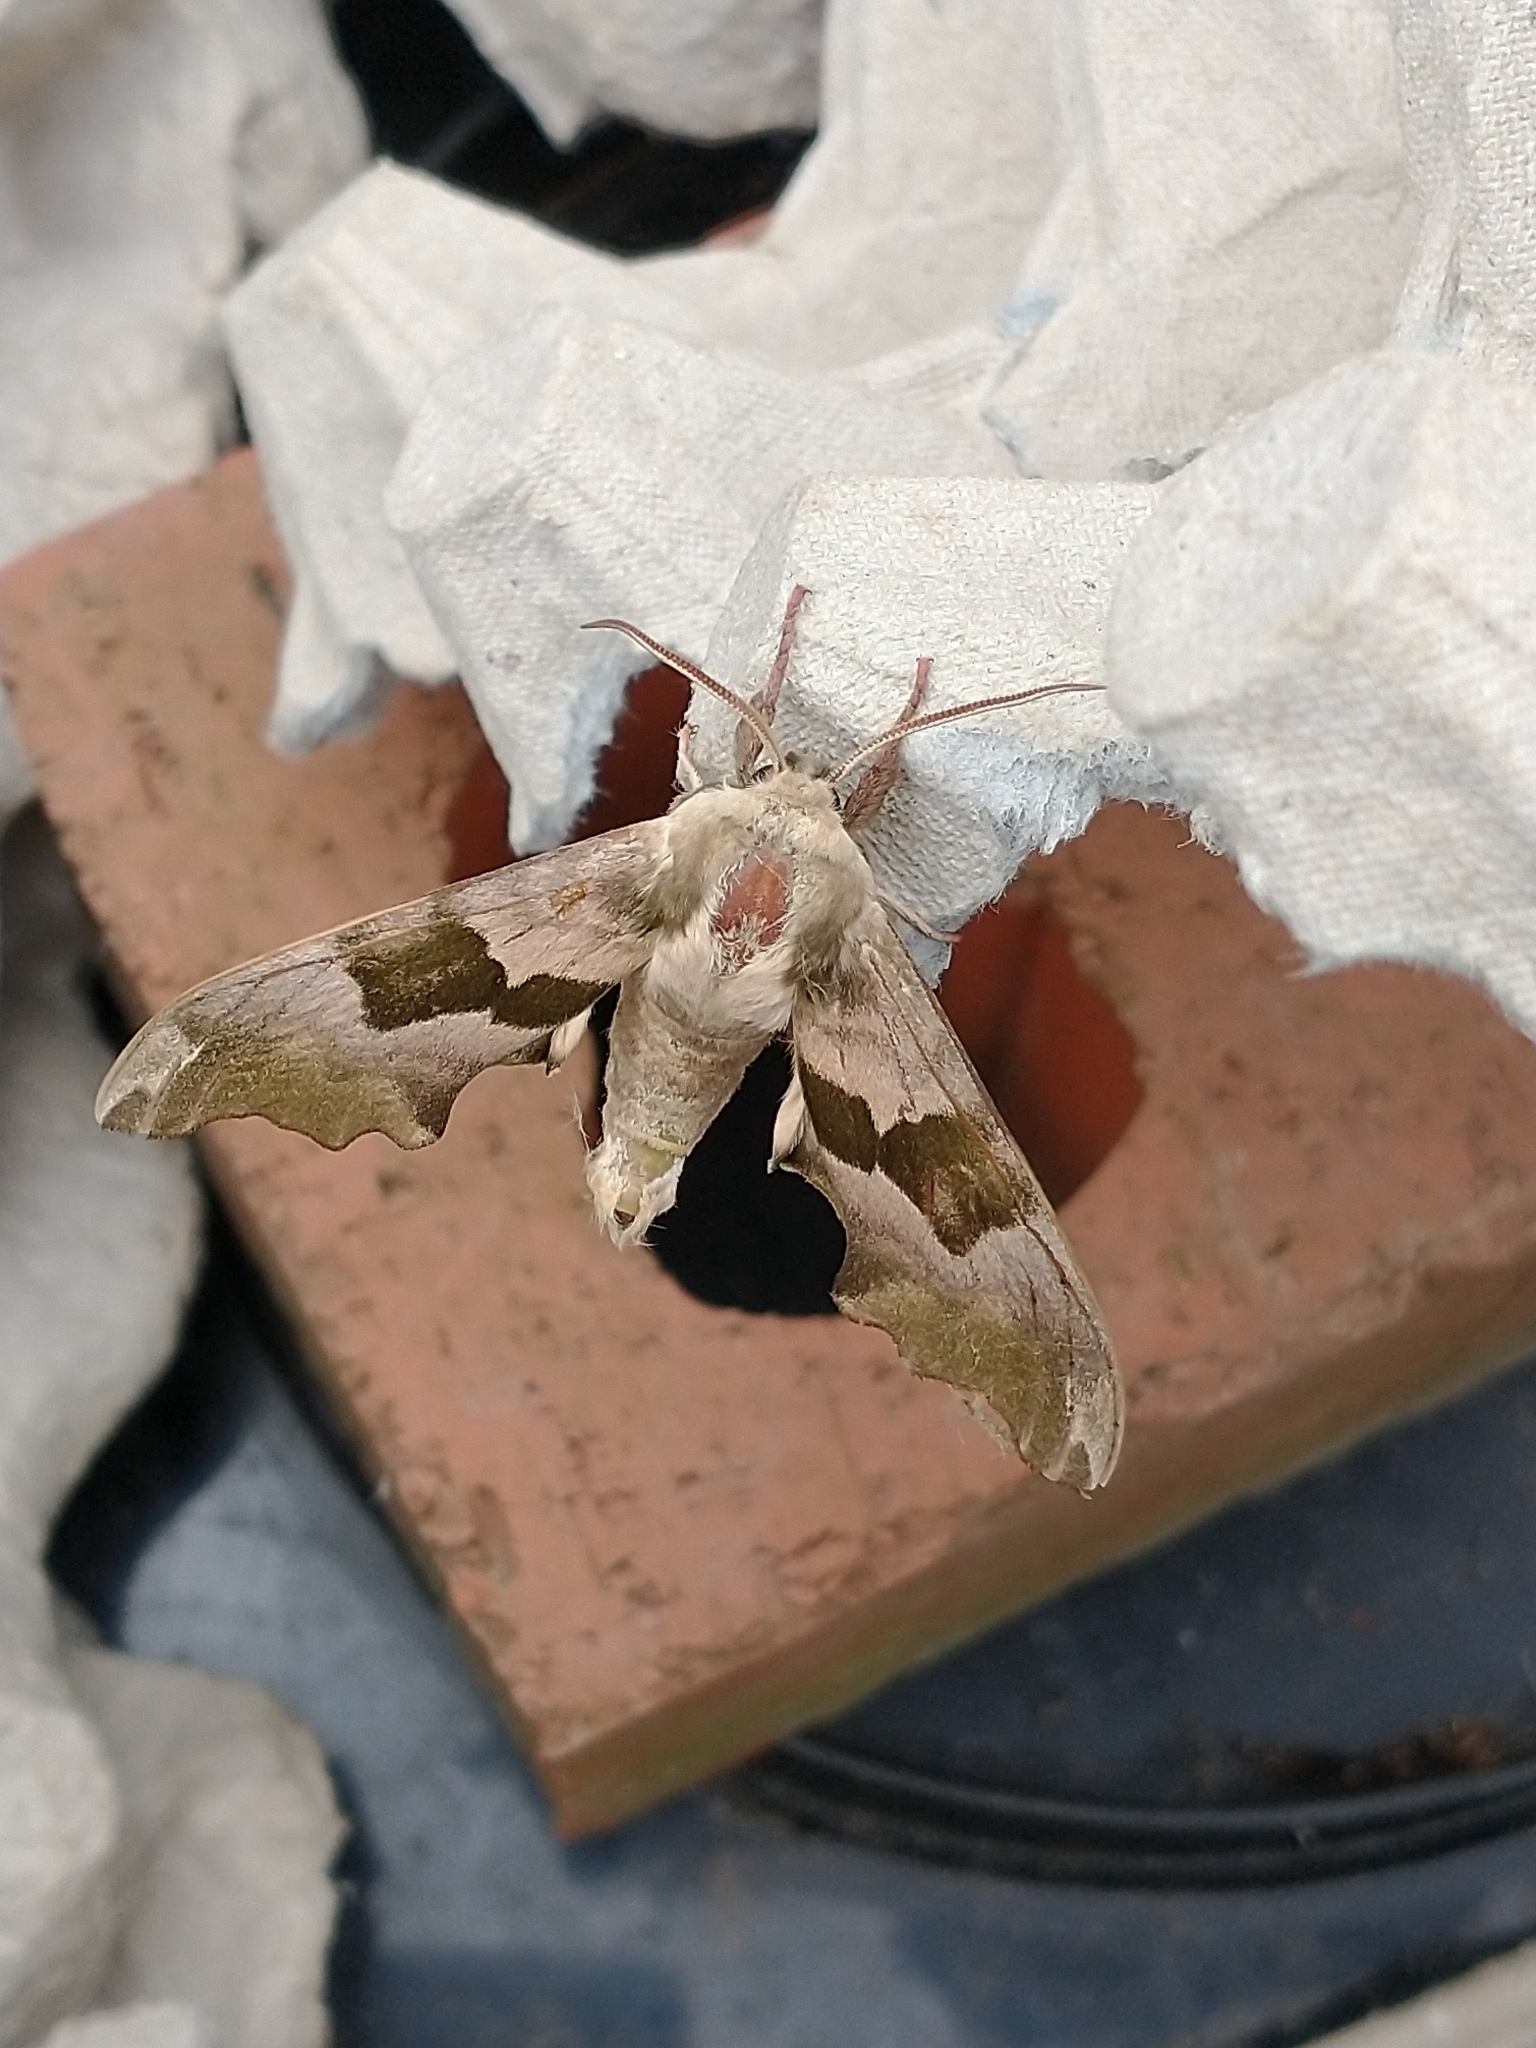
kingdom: Animalia
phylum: Arthropoda
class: Insecta
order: Lepidoptera
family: Sphingidae
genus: Mimas
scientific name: Mimas tiliae
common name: Lime hawk-moth
